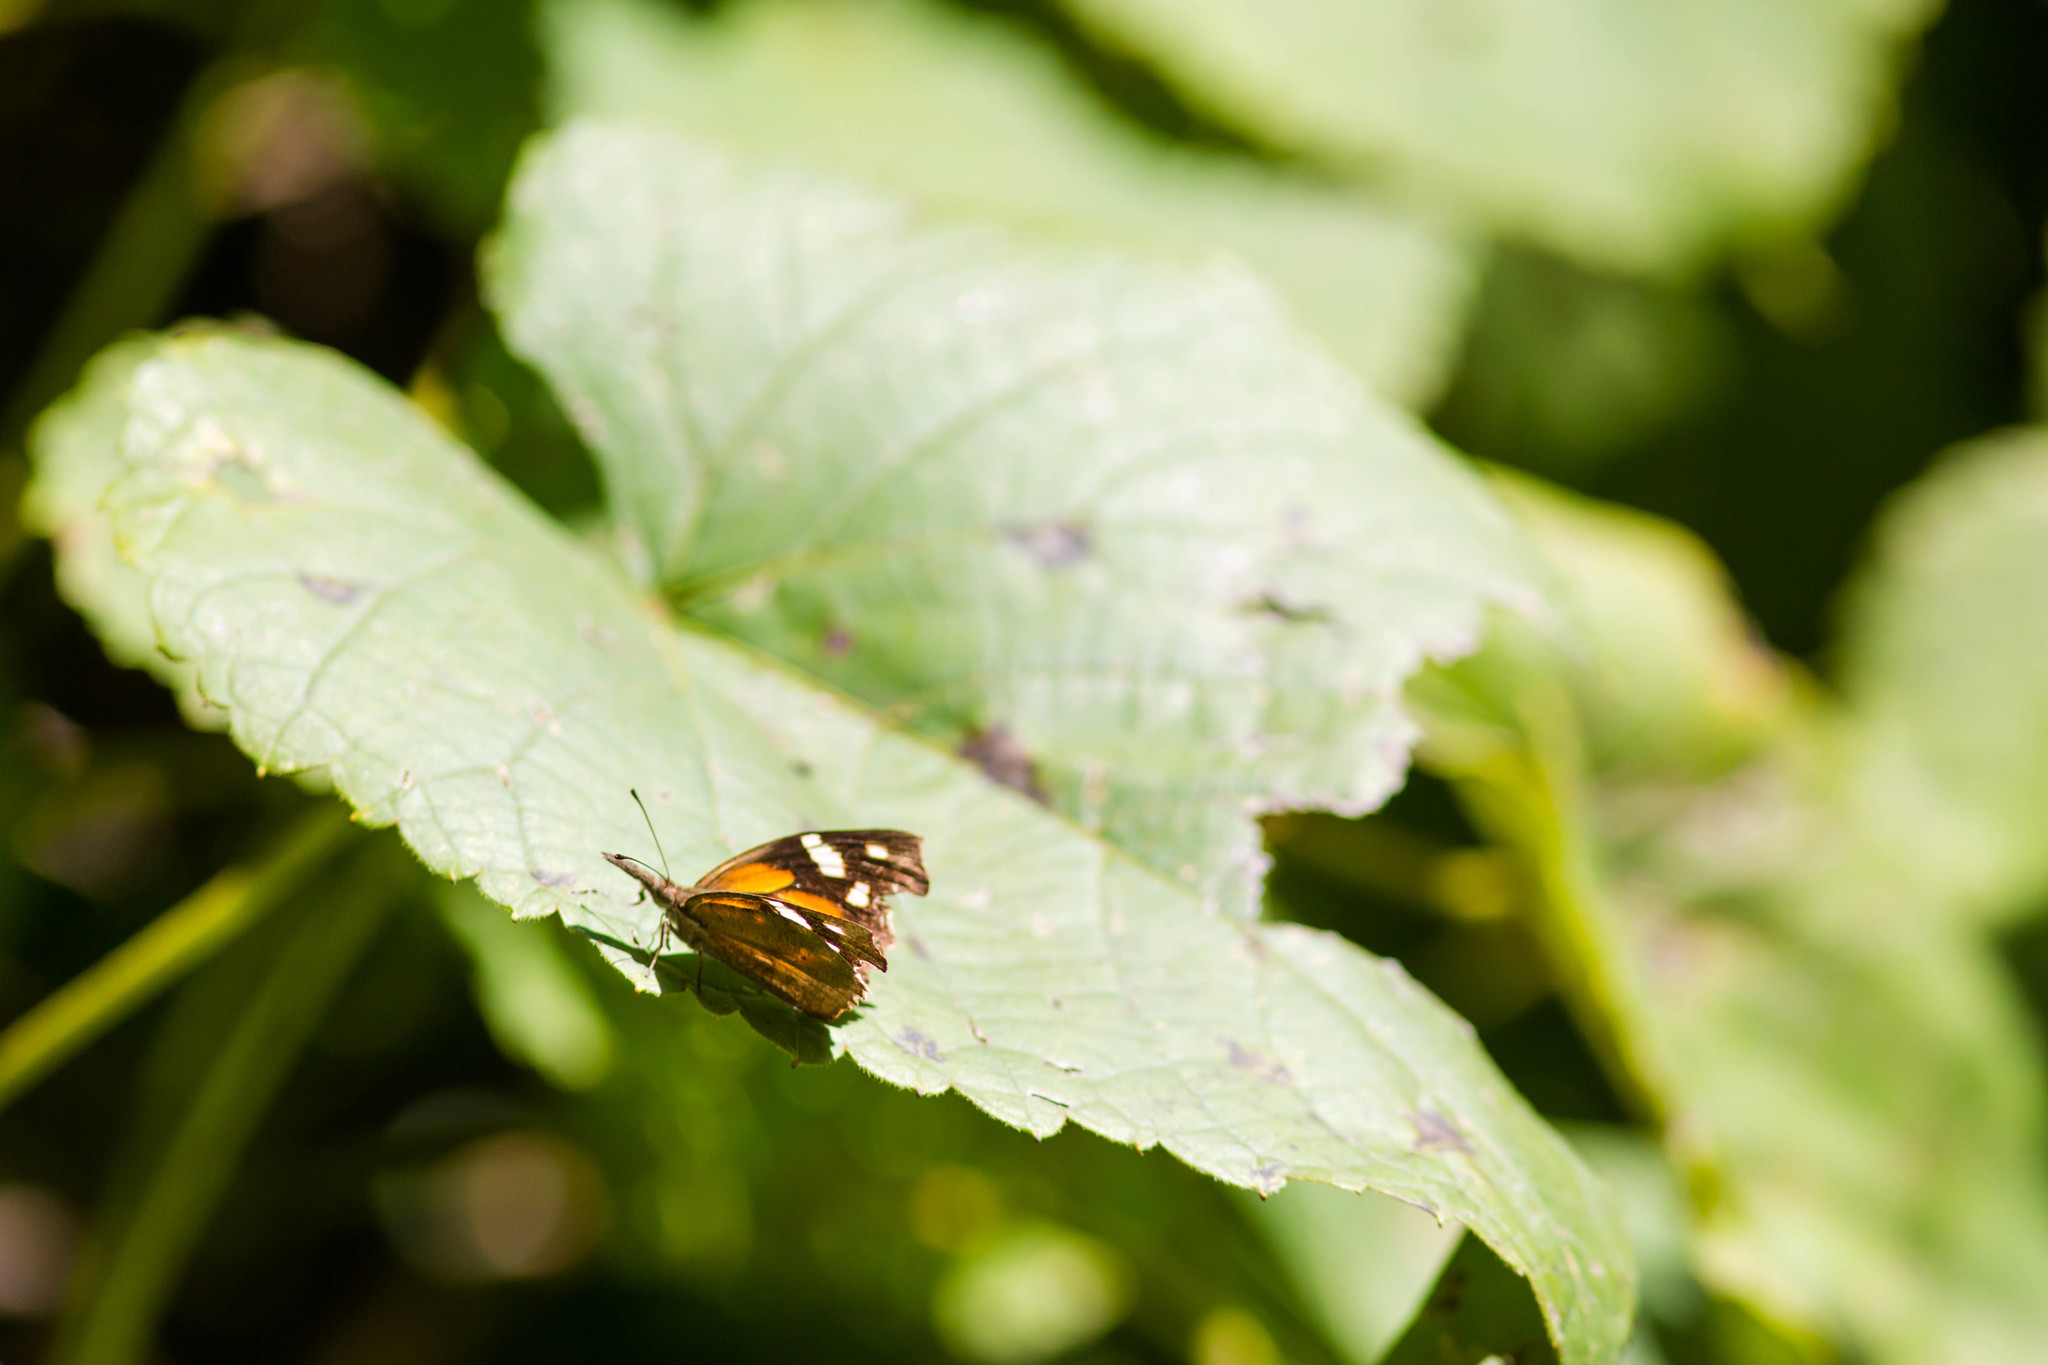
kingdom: Animalia
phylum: Arthropoda
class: Insecta
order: Lepidoptera
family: Nymphalidae
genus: Libytheana
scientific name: Libytheana carinenta
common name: American snout
